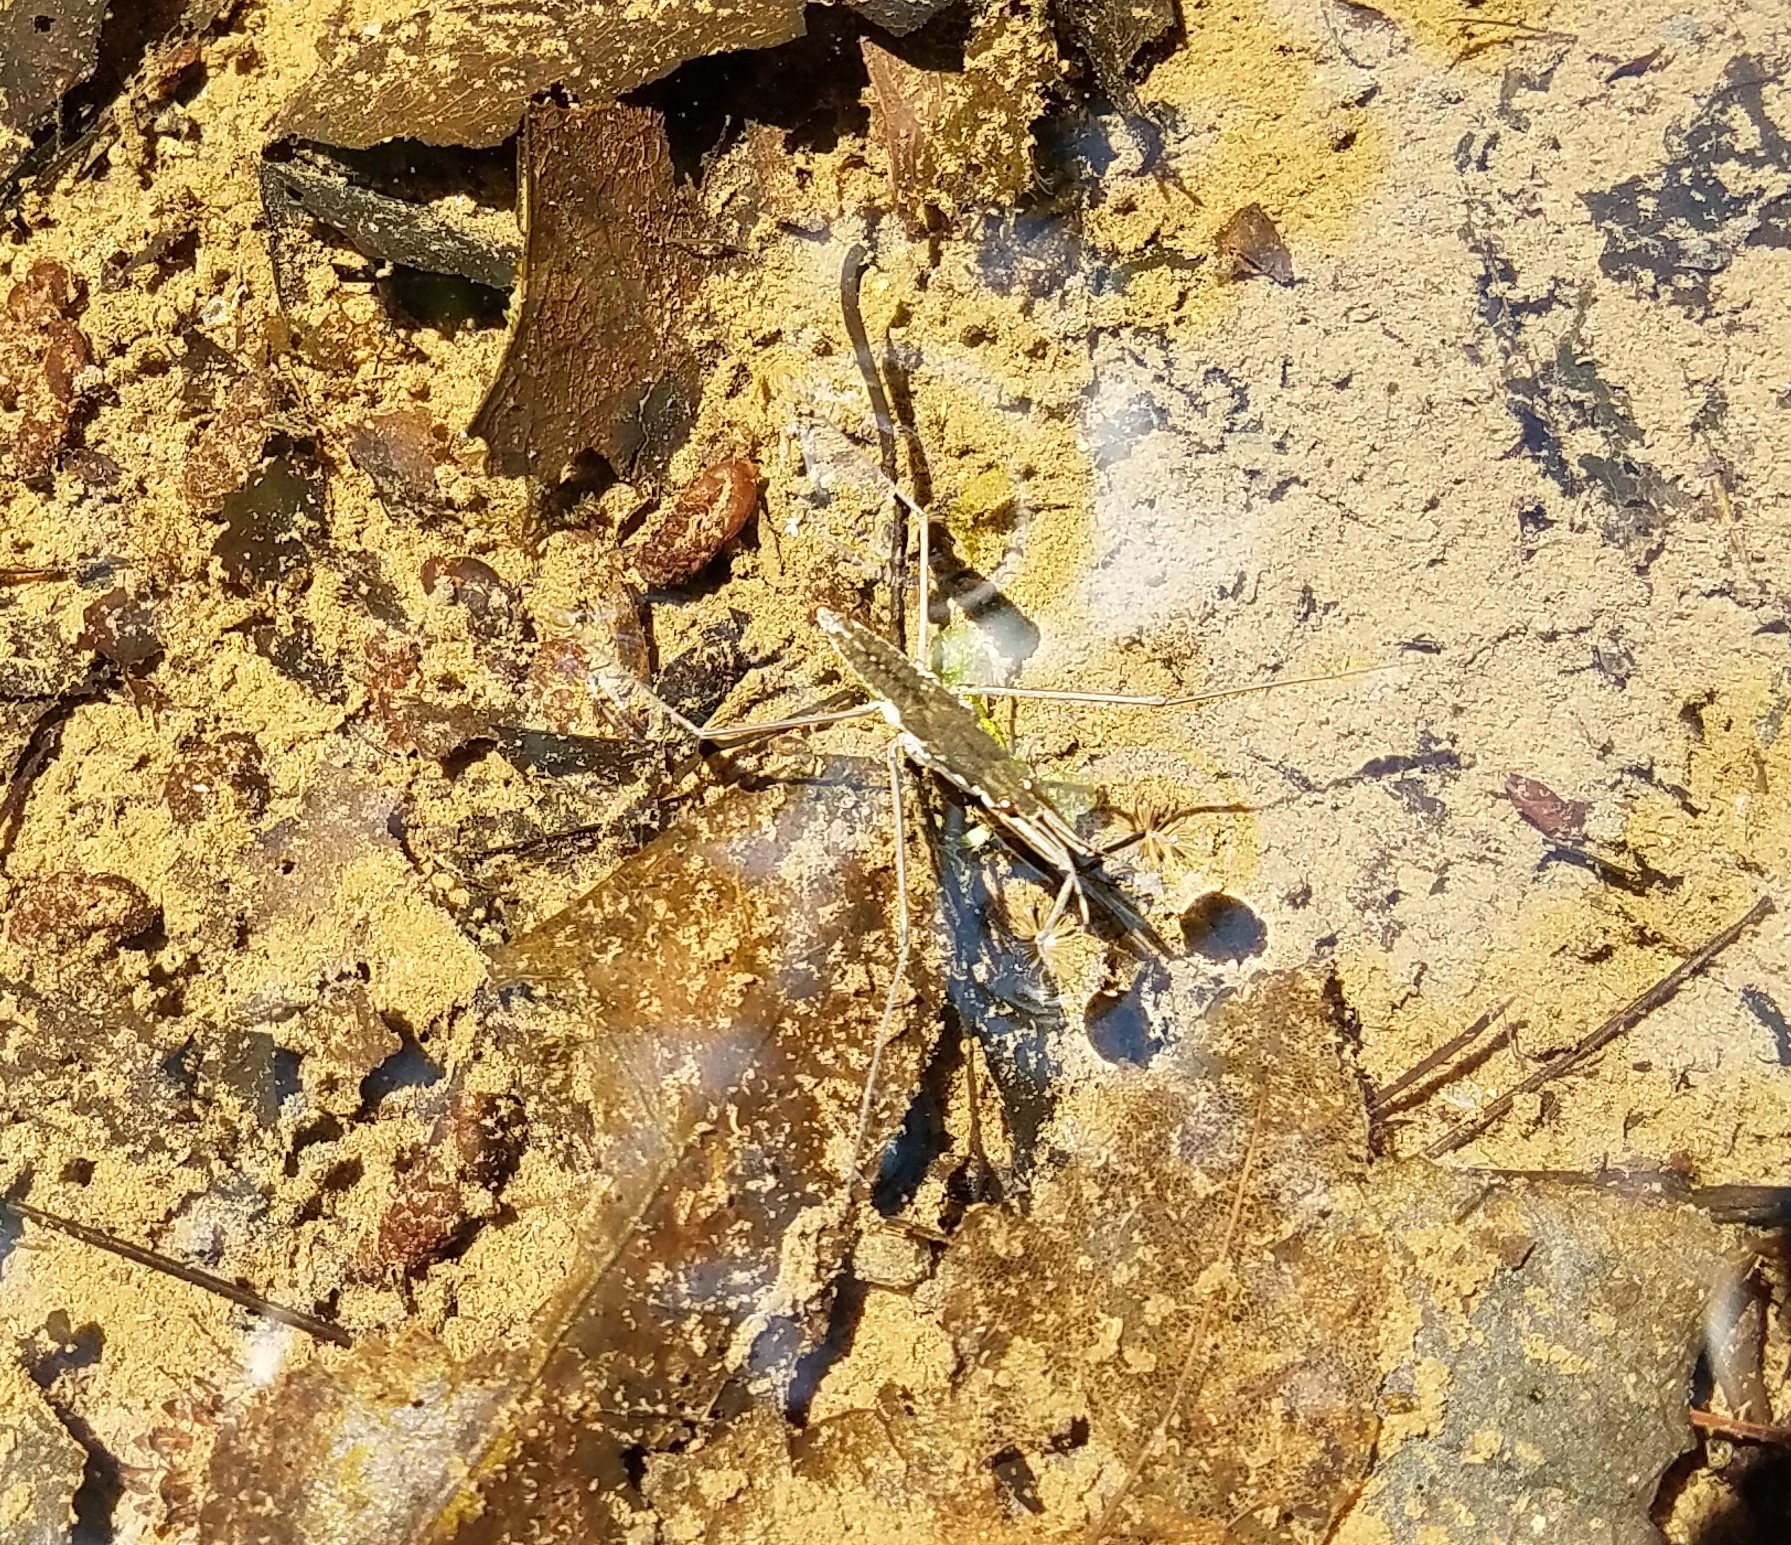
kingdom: Animalia
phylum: Arthropoda
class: Insecta
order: Hemiptera
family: Gerridae
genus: Aquarius
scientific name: Aquarius remigis
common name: Common water strider
